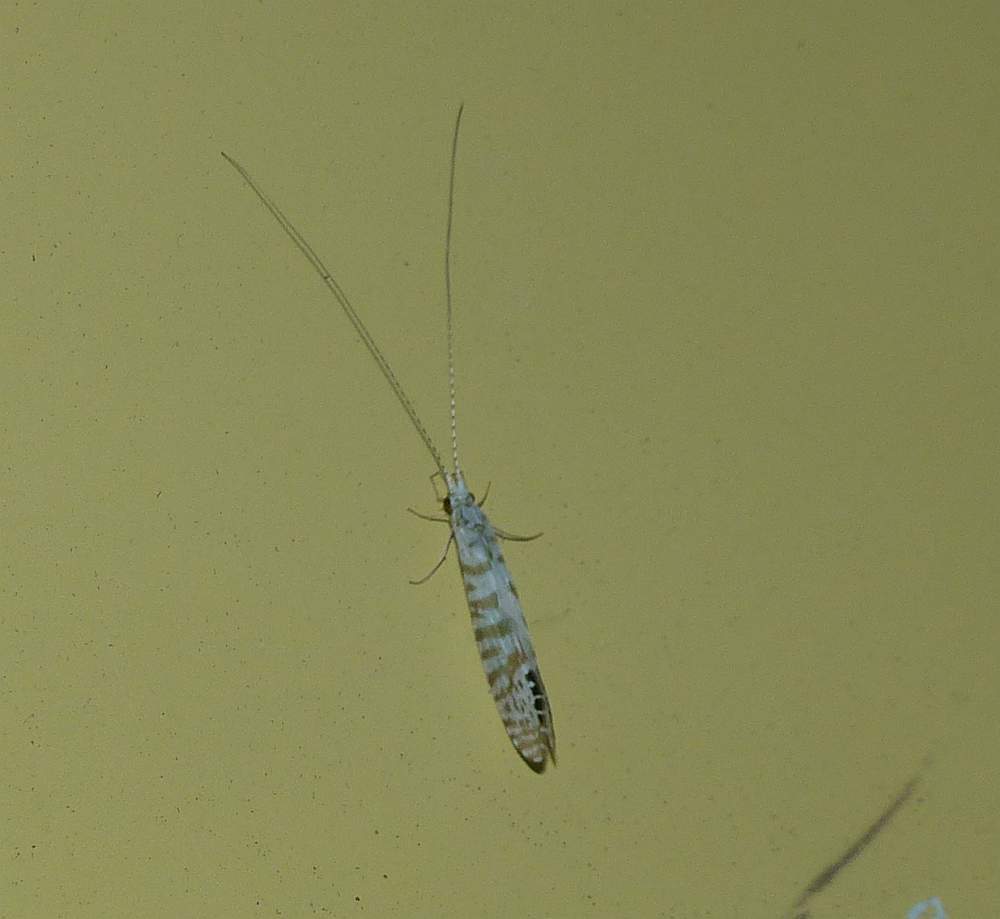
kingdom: Animalia
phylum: Arthropoda
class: Insecta
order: Trichoptera
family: Leptoceridae
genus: Nectopsyche
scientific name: Nectopsyche exquisita
